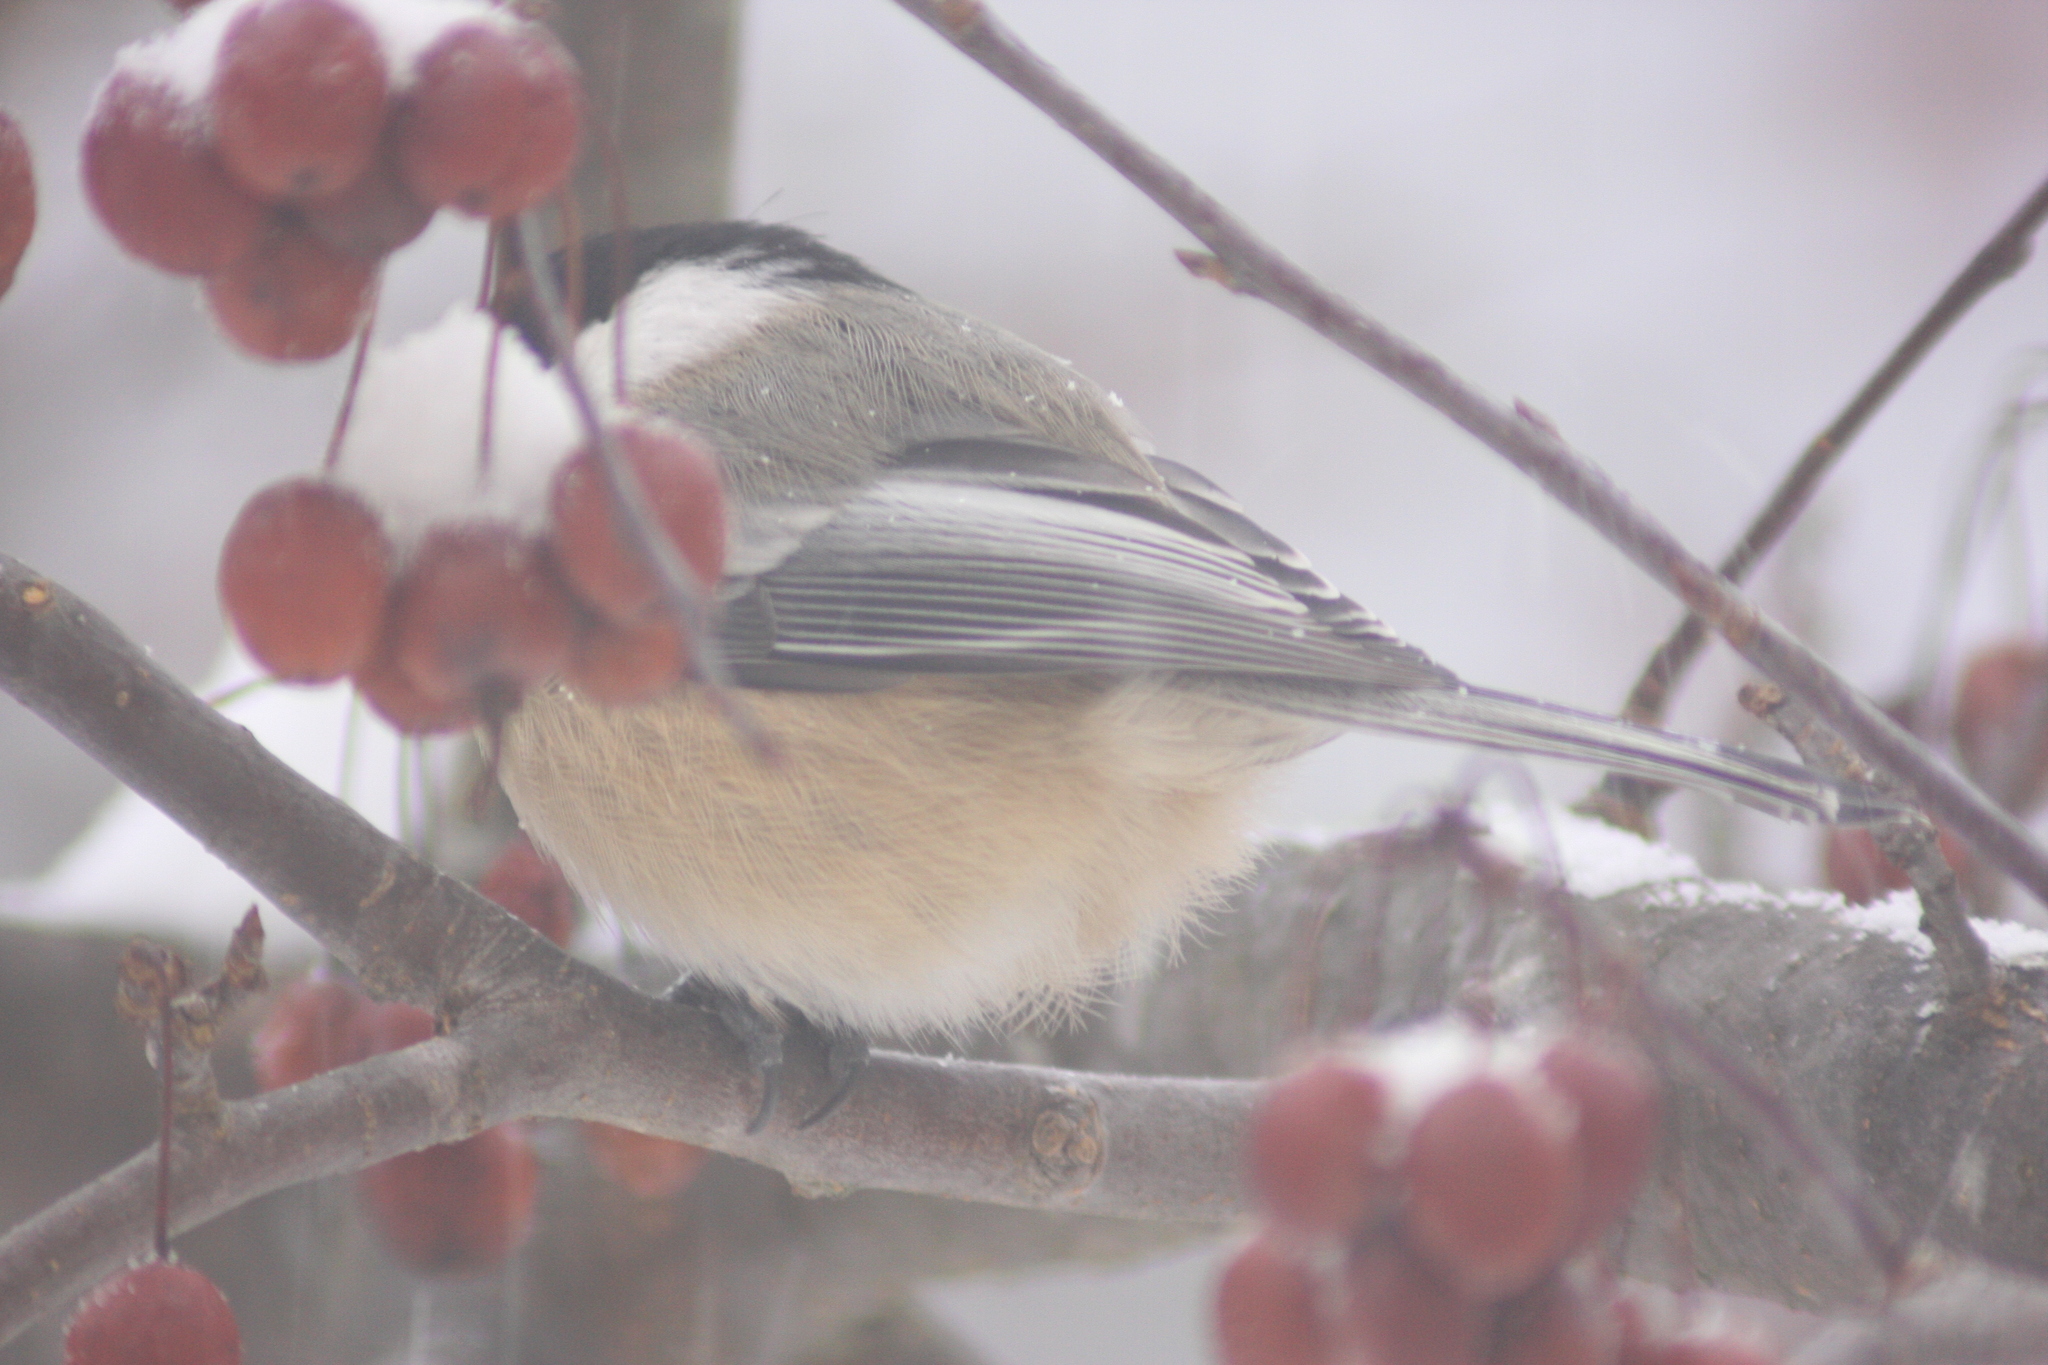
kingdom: Animalia
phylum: Chordata
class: Aves
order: Passeriformes
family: Paridae
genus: Poecile
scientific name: Poecile atricapillus
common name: Black-capped chickadee
